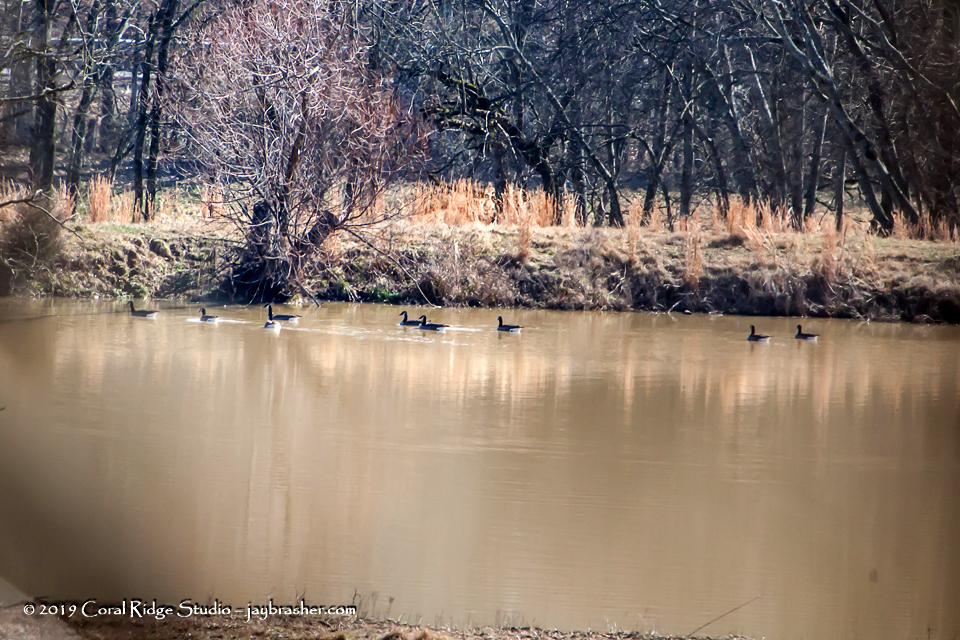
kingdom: Animalia
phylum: Chordata
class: Aves
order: Anseriformes
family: Anatidae
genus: Branta
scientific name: Branta canadensis
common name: Canada goose
